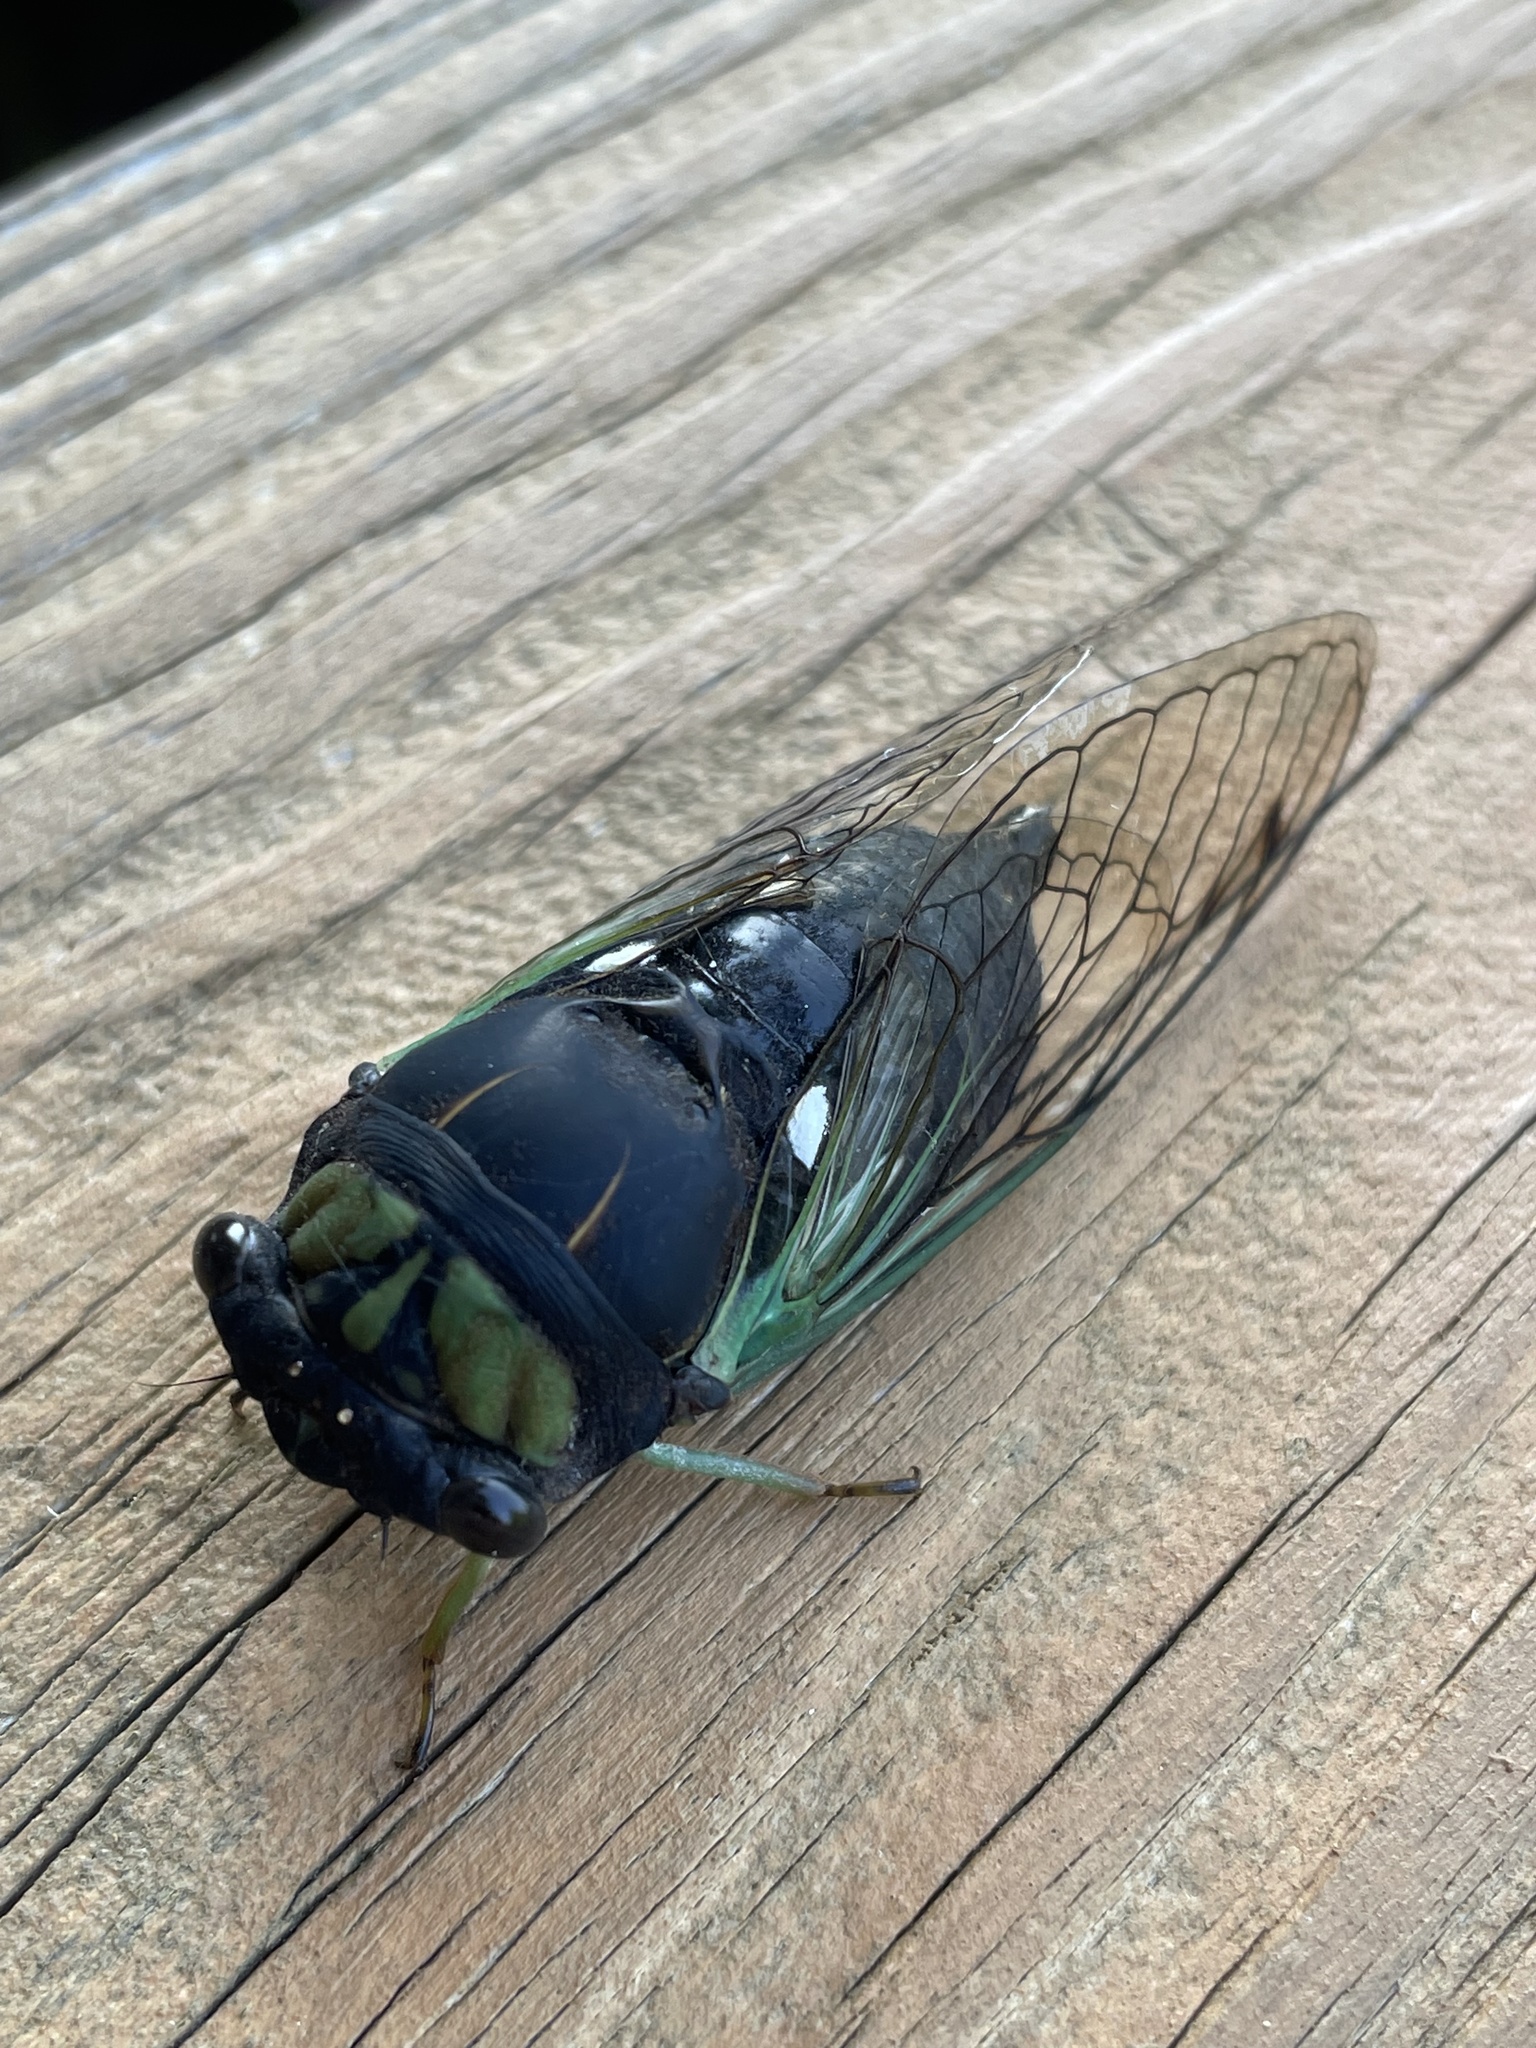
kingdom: Animalia
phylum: Arthropoda
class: Insecta
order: Hemiptera
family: Cicadidae
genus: Neotibicen
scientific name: Neotibicen tibicen
